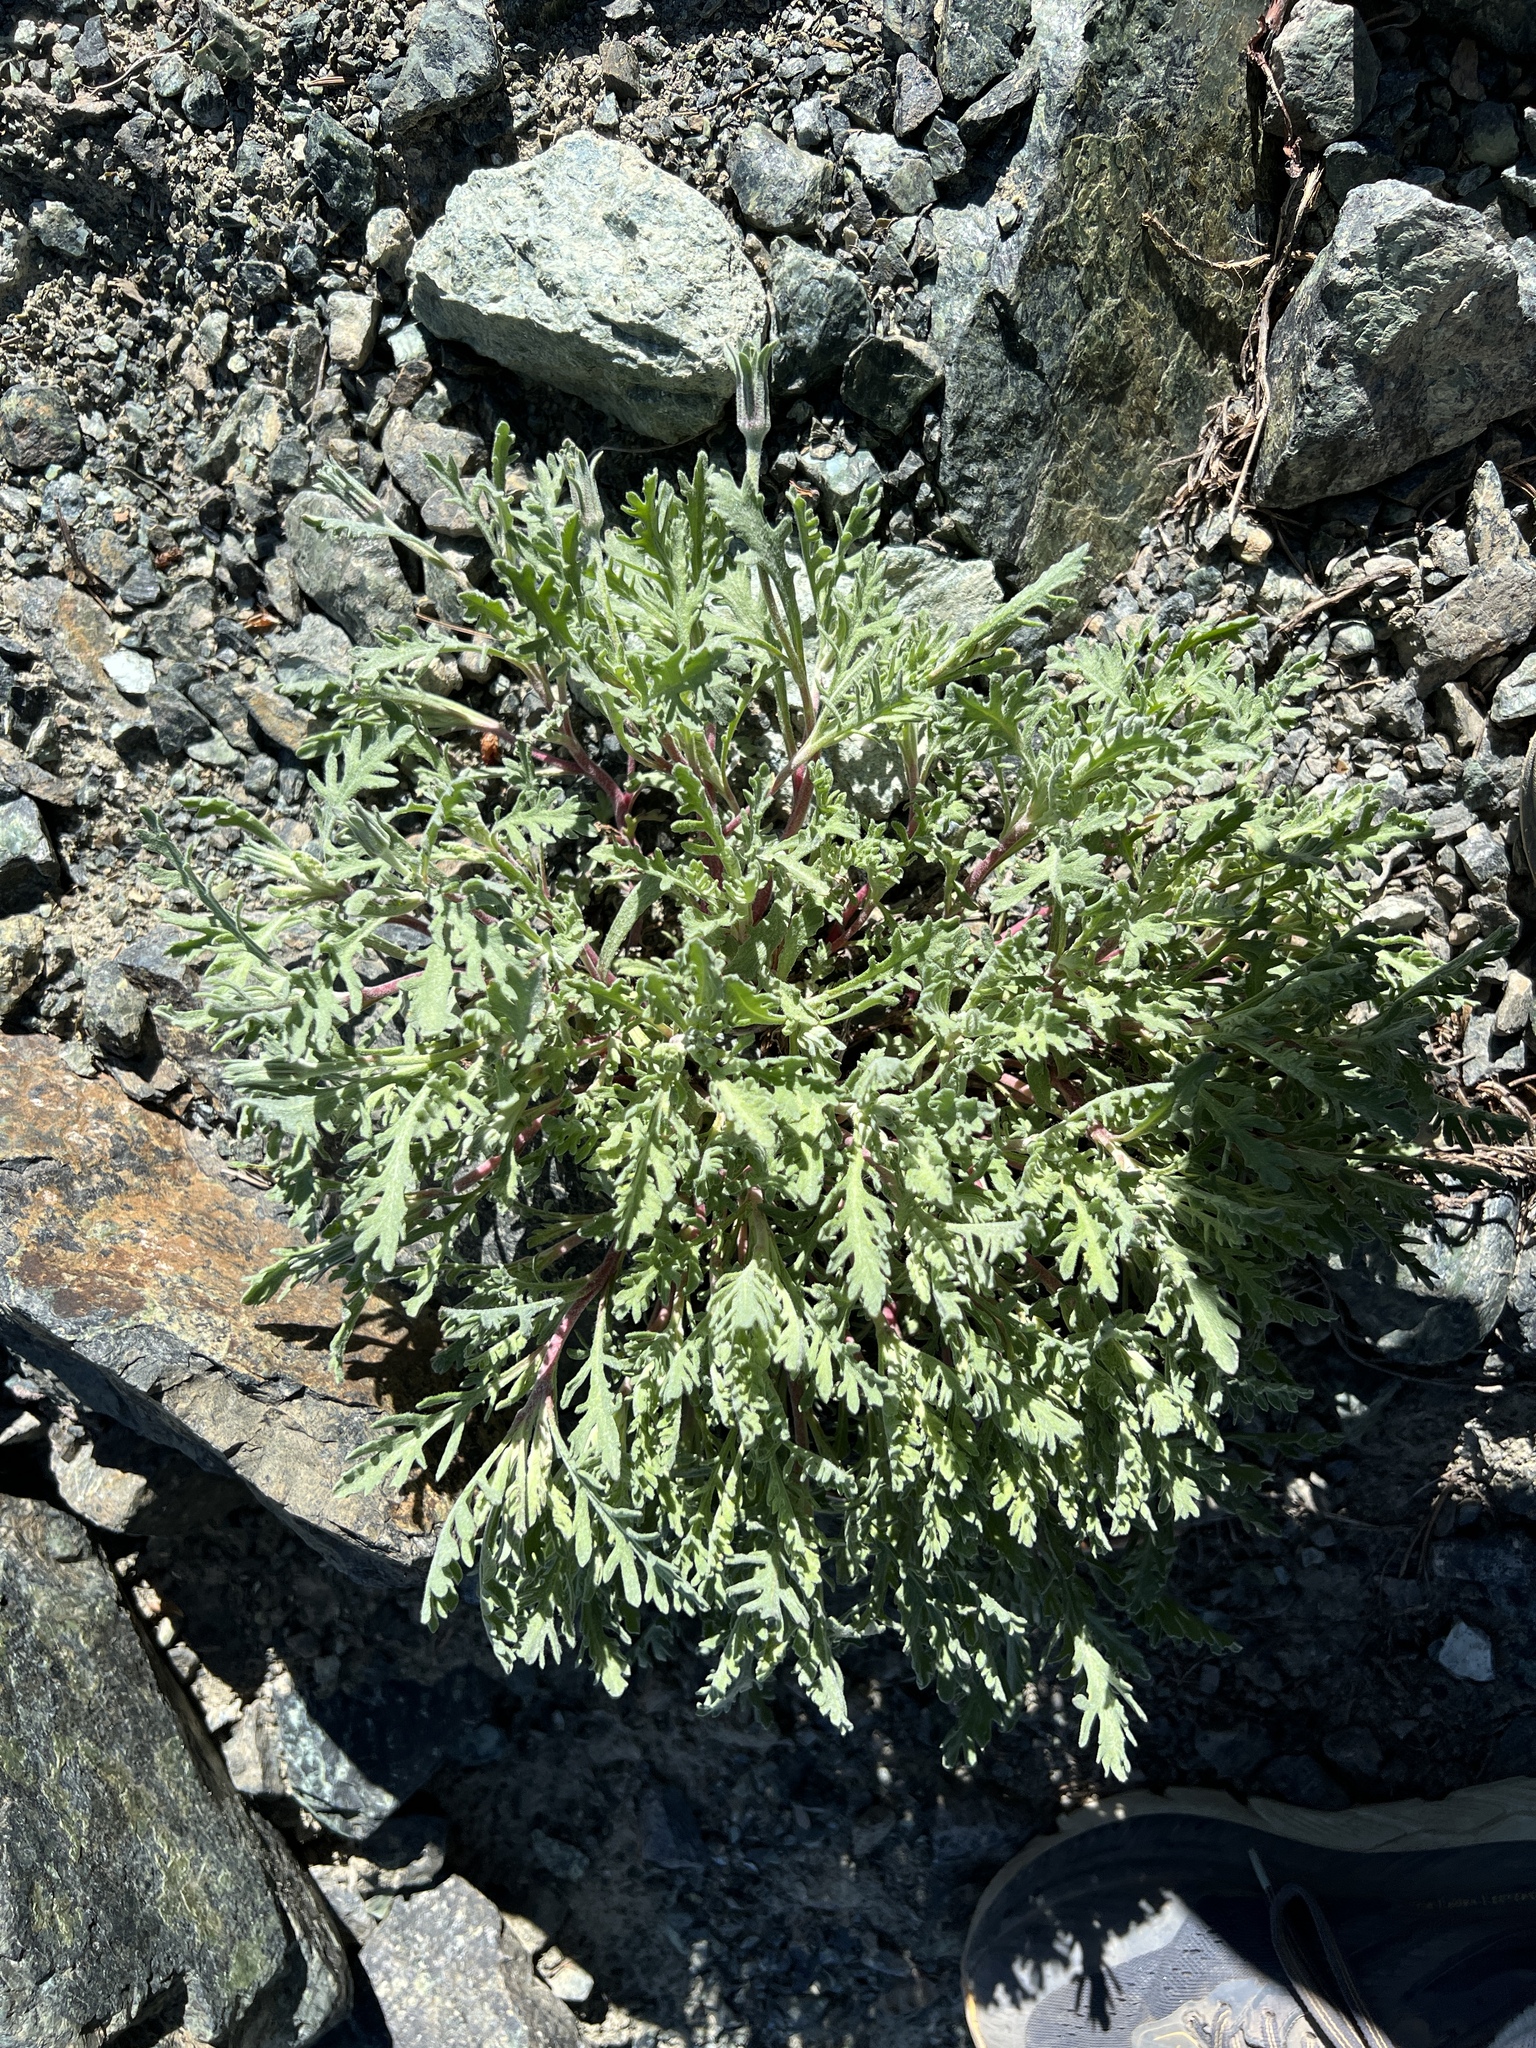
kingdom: Plantae
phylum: Tracheophyta
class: Magnoliopsida
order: Asterales
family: Asteraceae
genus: Chaenactis
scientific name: Chaenactis thompsonii
